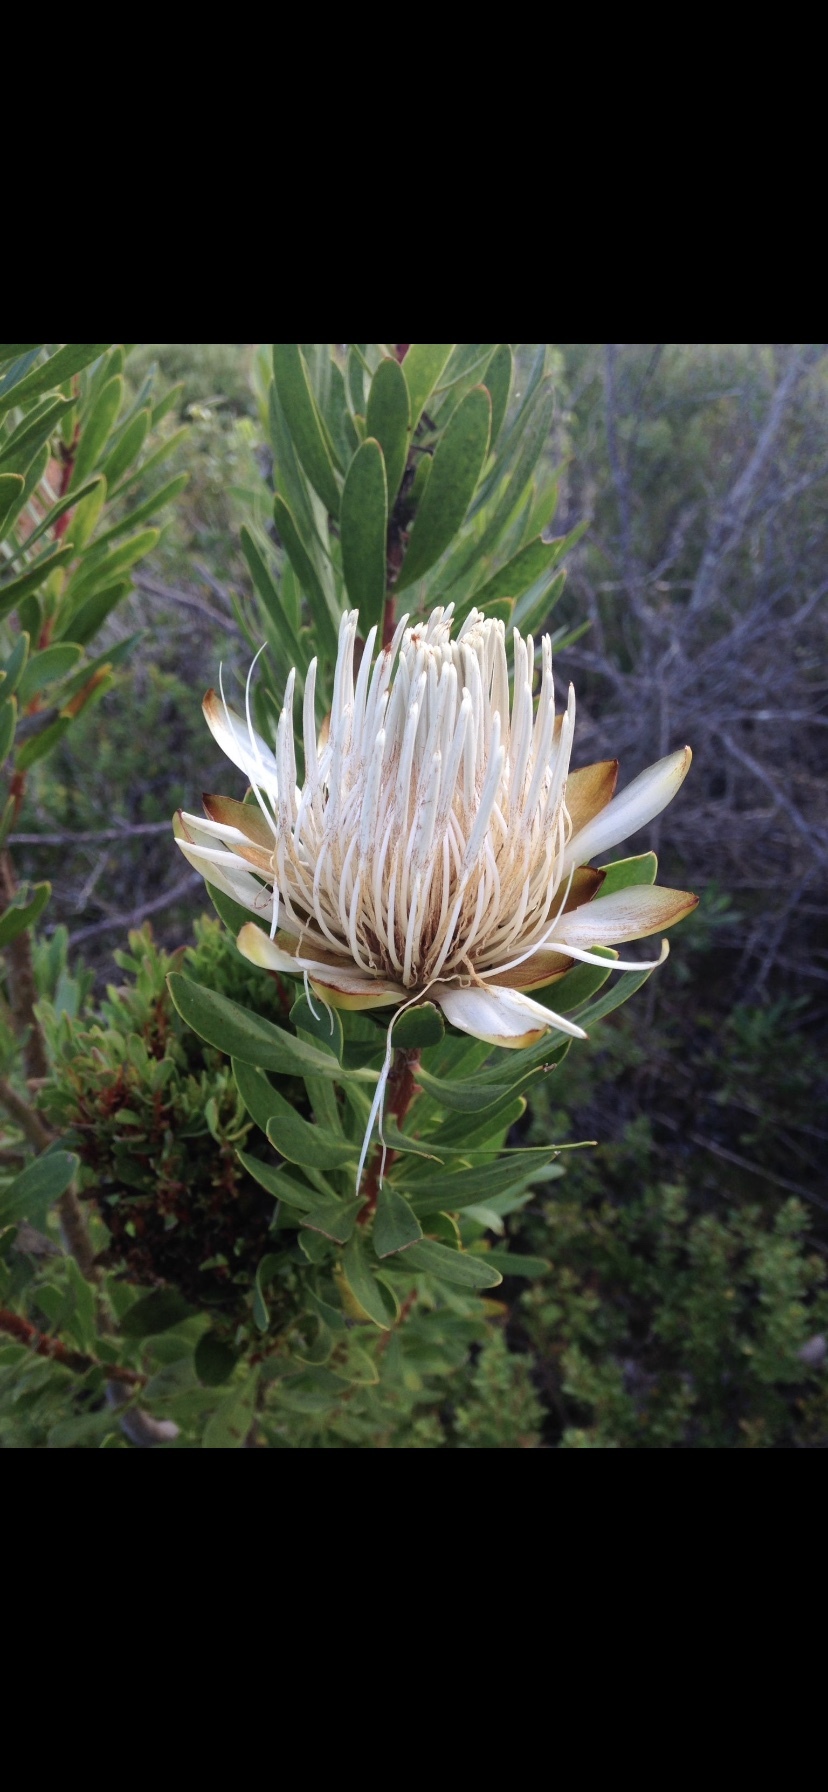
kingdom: Plantae
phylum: Tracheophyta
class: Magnoliopsida
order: Proteales
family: Proteaceae
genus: Protea
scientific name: Protea lanceolata
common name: Lance-leaved protea
